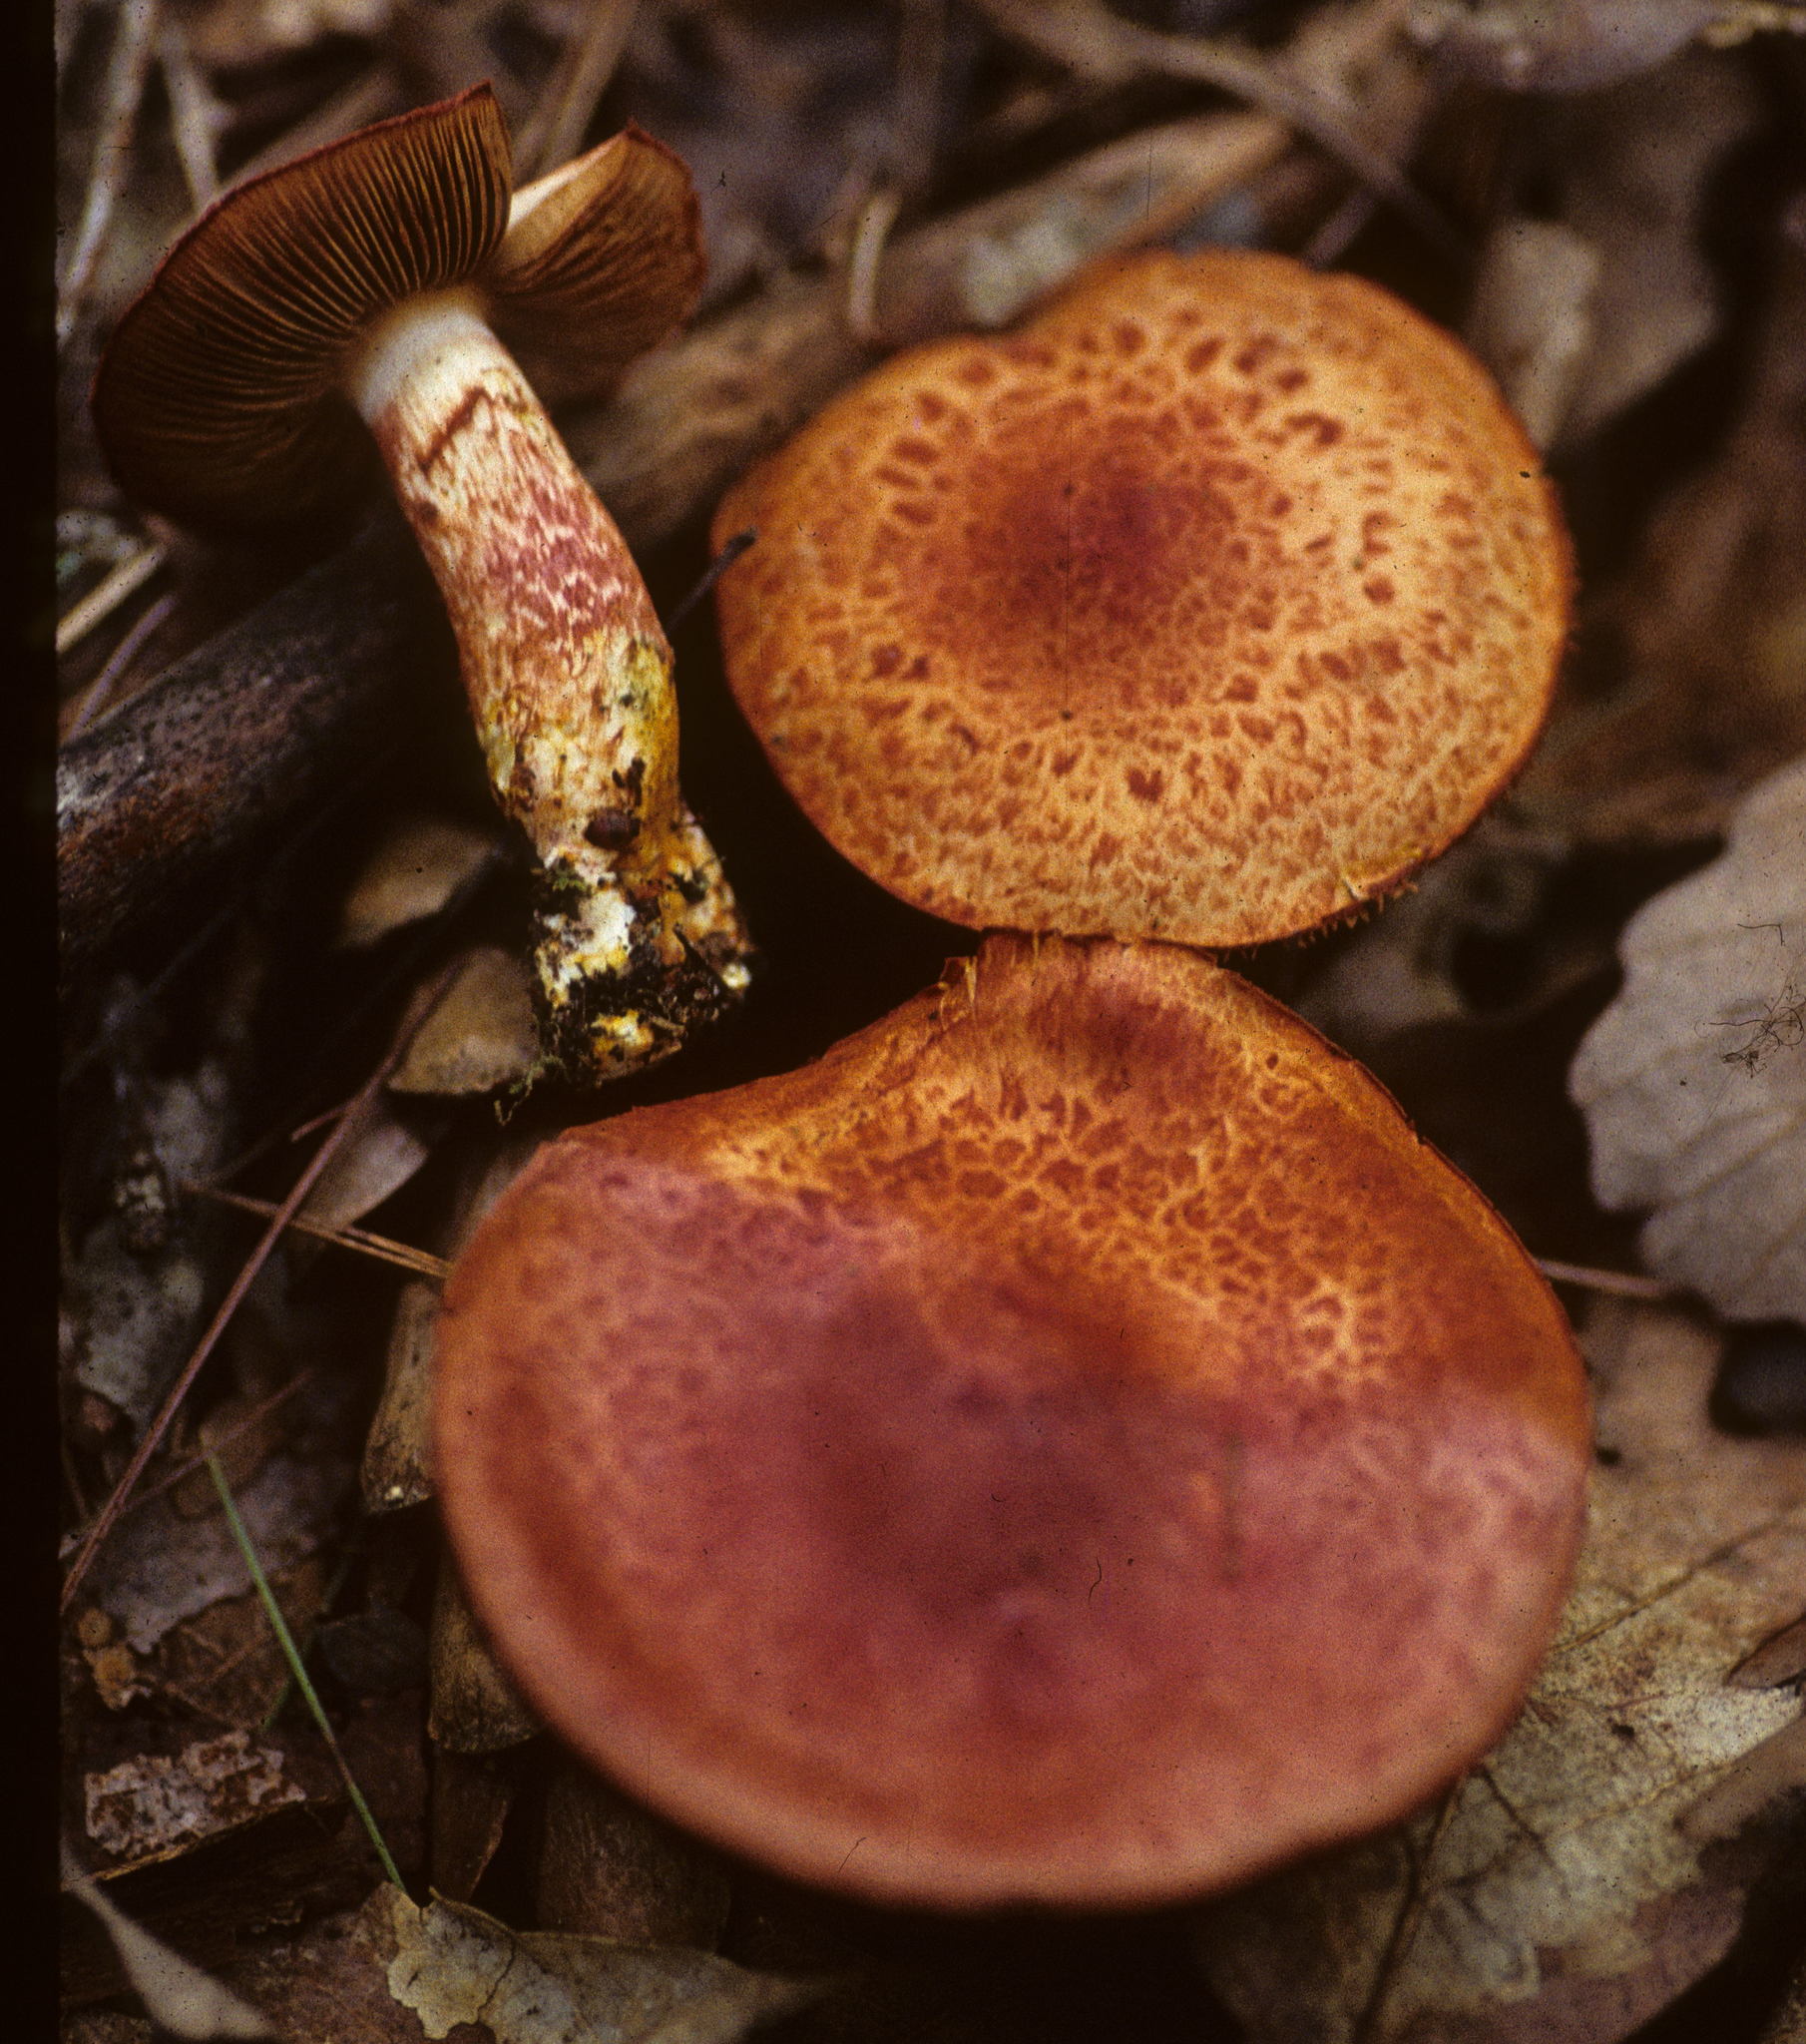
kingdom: Fungi
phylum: Basidiomycota
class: Agaricomycetes
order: Agaricales
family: Cortinariaceae
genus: Cortinarius
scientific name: Cortinarius bolaris
